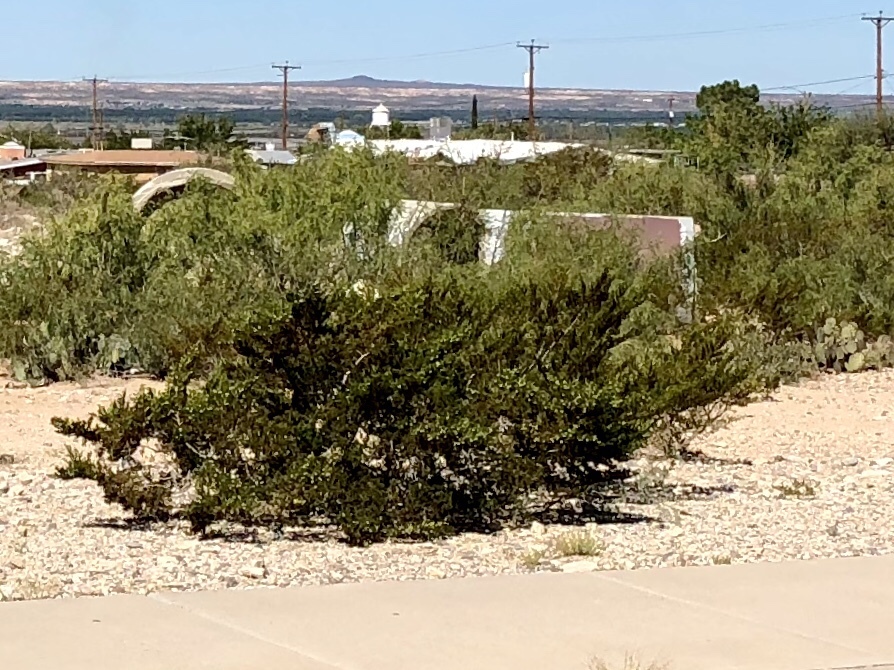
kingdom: Plantae
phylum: Tracheophyta
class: Magnoliopsida
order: Zygophyllales
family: Zygophyllaceae
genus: Larrea
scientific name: Larrea tridentata
